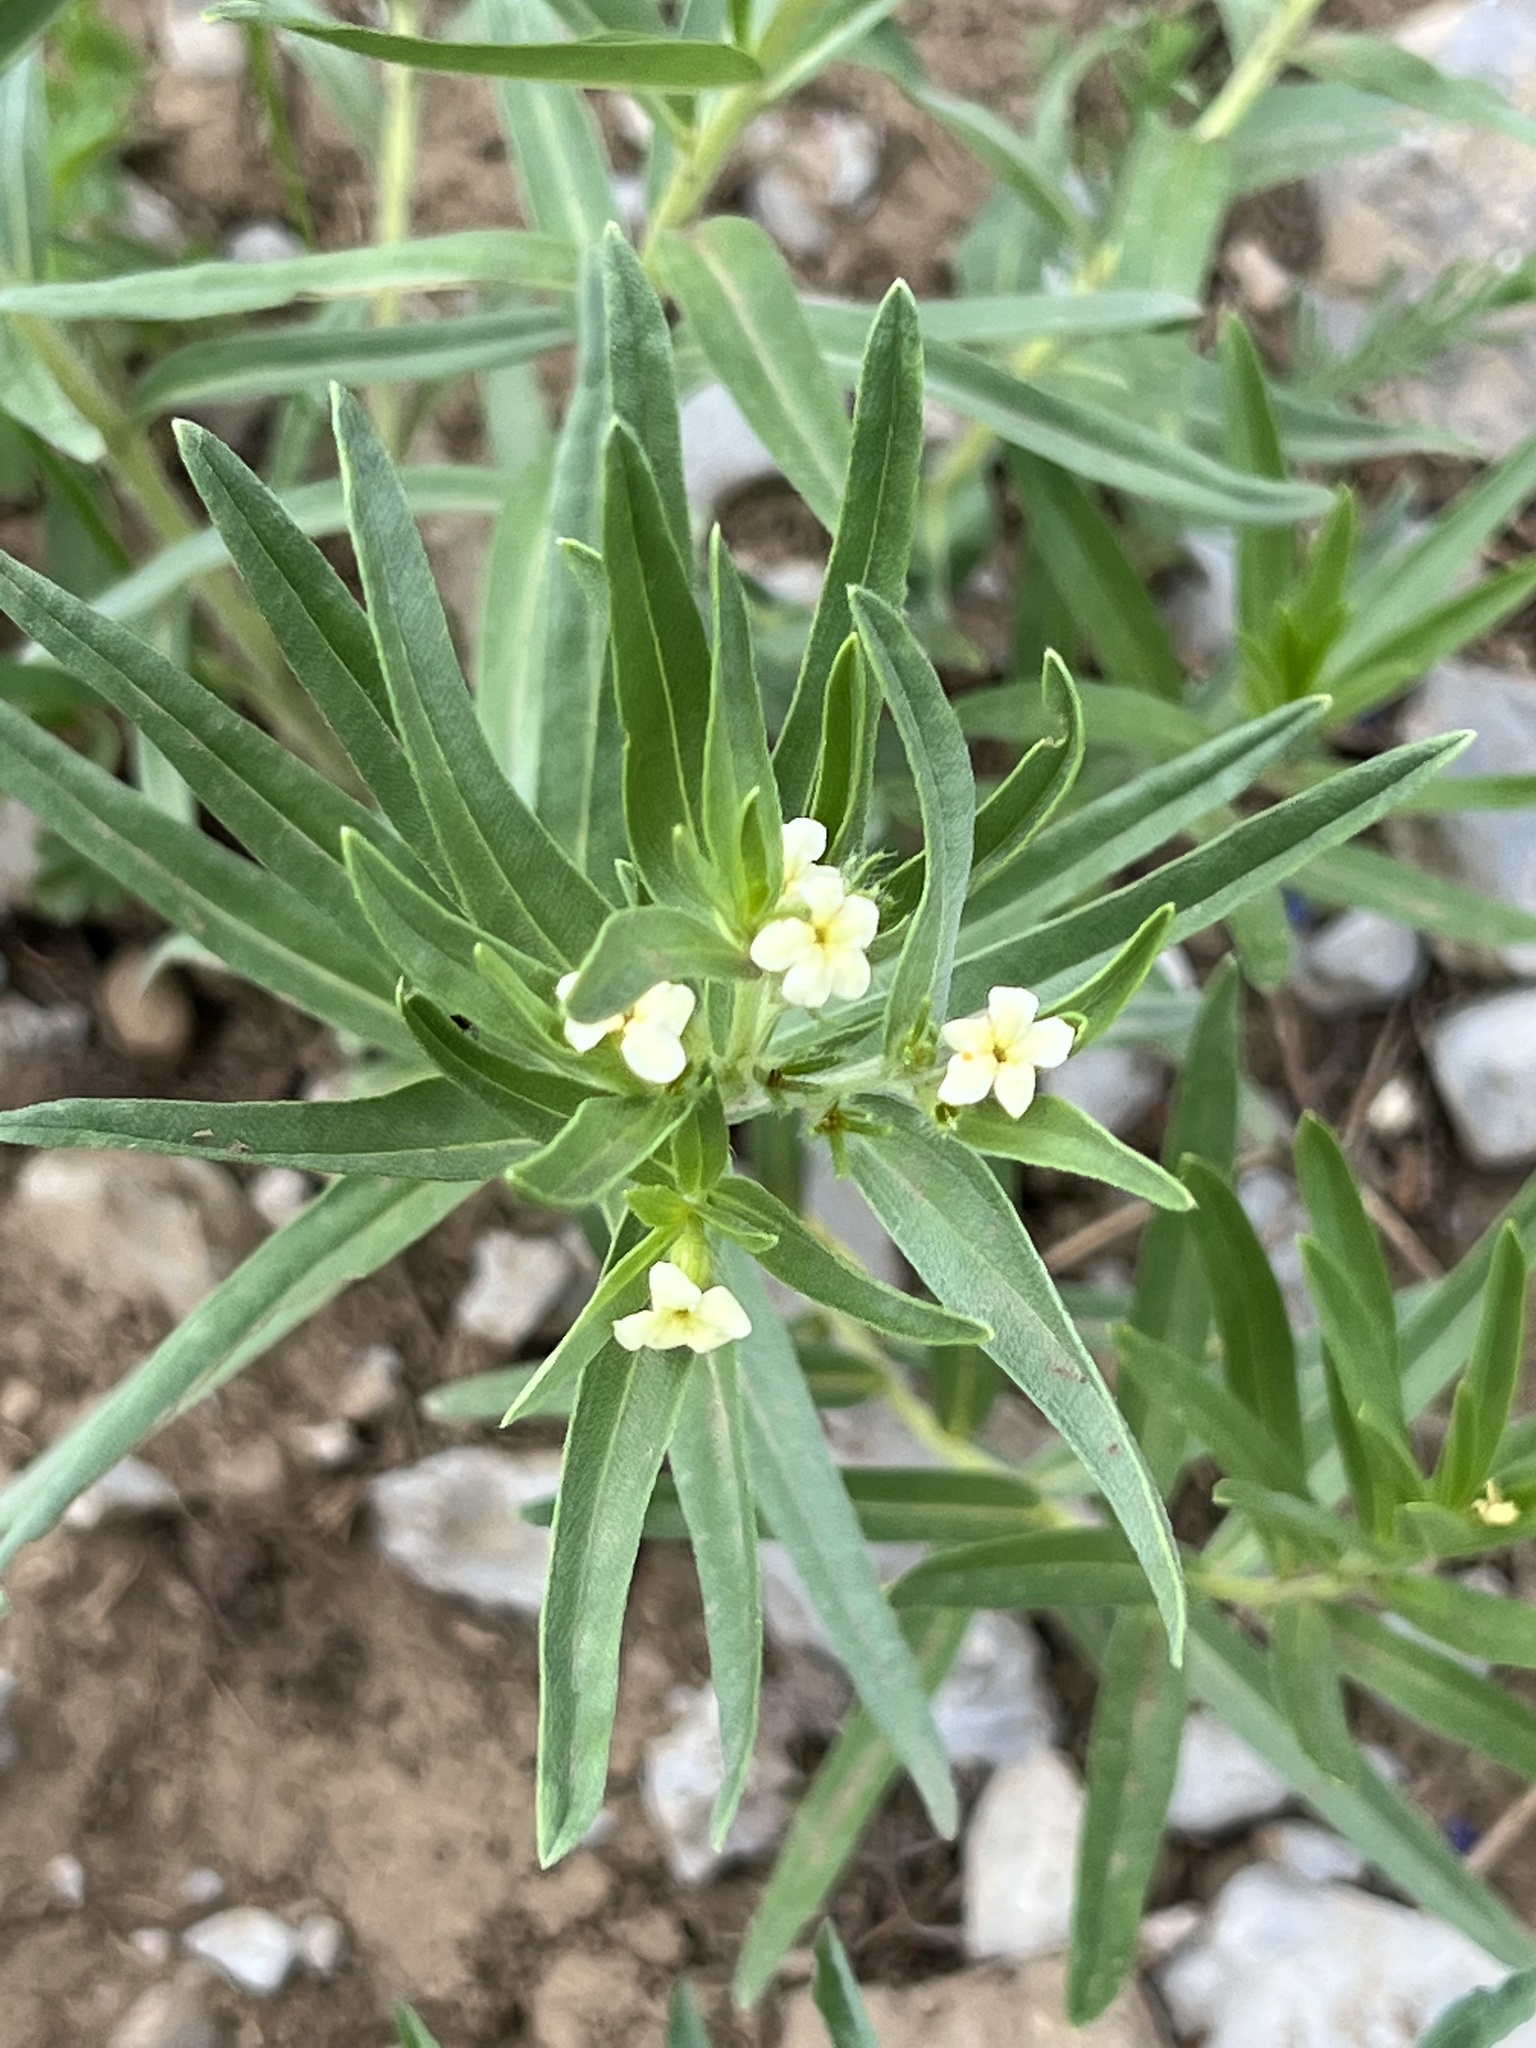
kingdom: Plantae
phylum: Tracheophyta
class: Magnoliopsida
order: Boraginales
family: Boraginaceae
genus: Lithospermum
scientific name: Lithospermum ruderale
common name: Western gromwell
